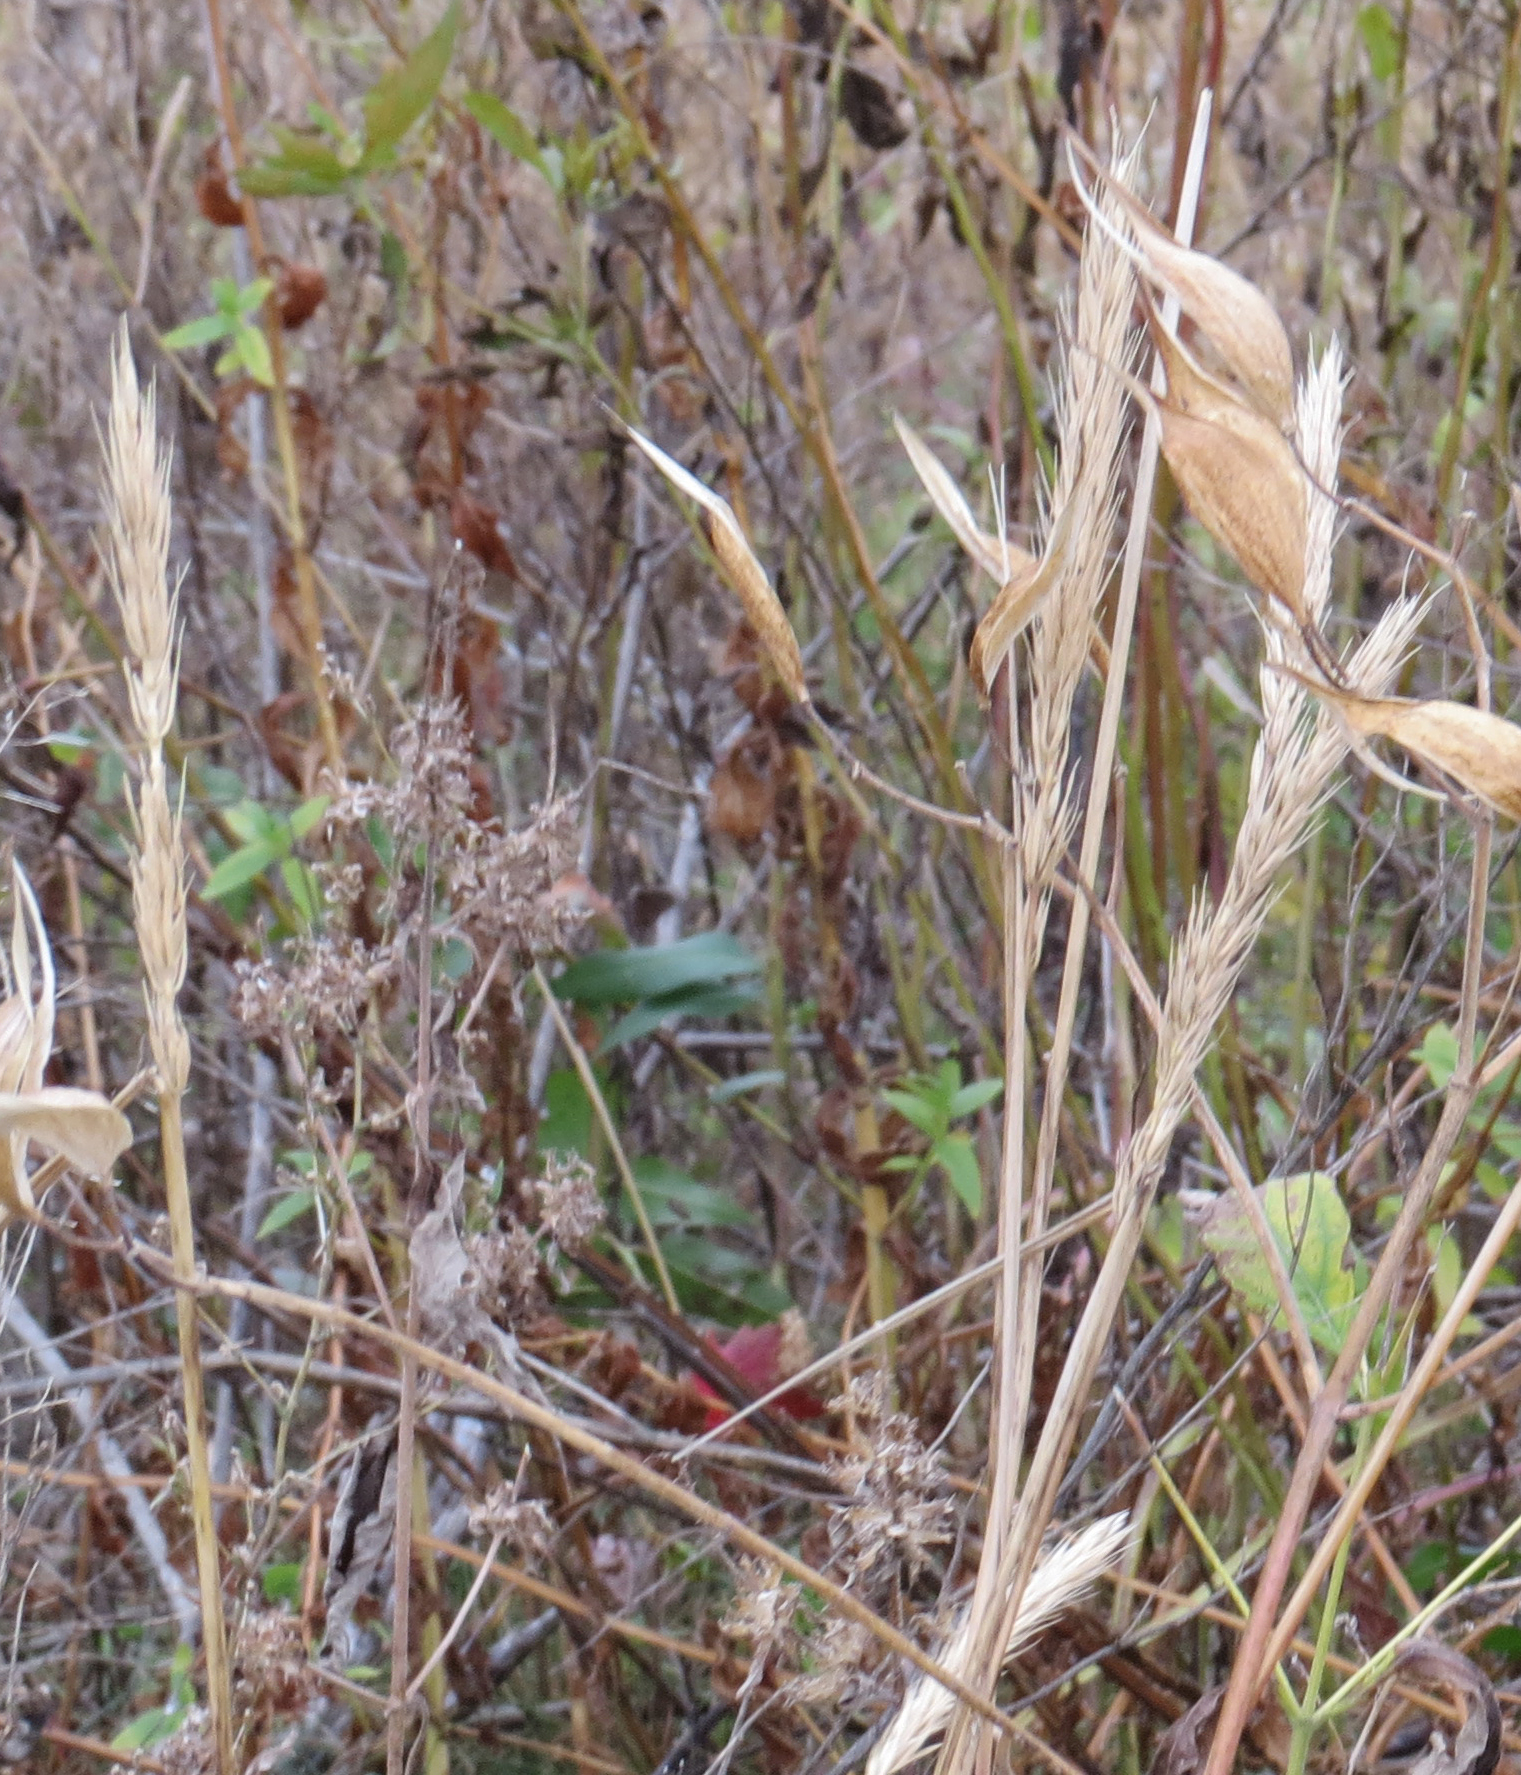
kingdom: Plantae
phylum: Tracheophyta
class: Liliopsida
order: Poales
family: Poaceae
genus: Elymus
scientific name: Elymus virginicus
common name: Common eastern wildrye
